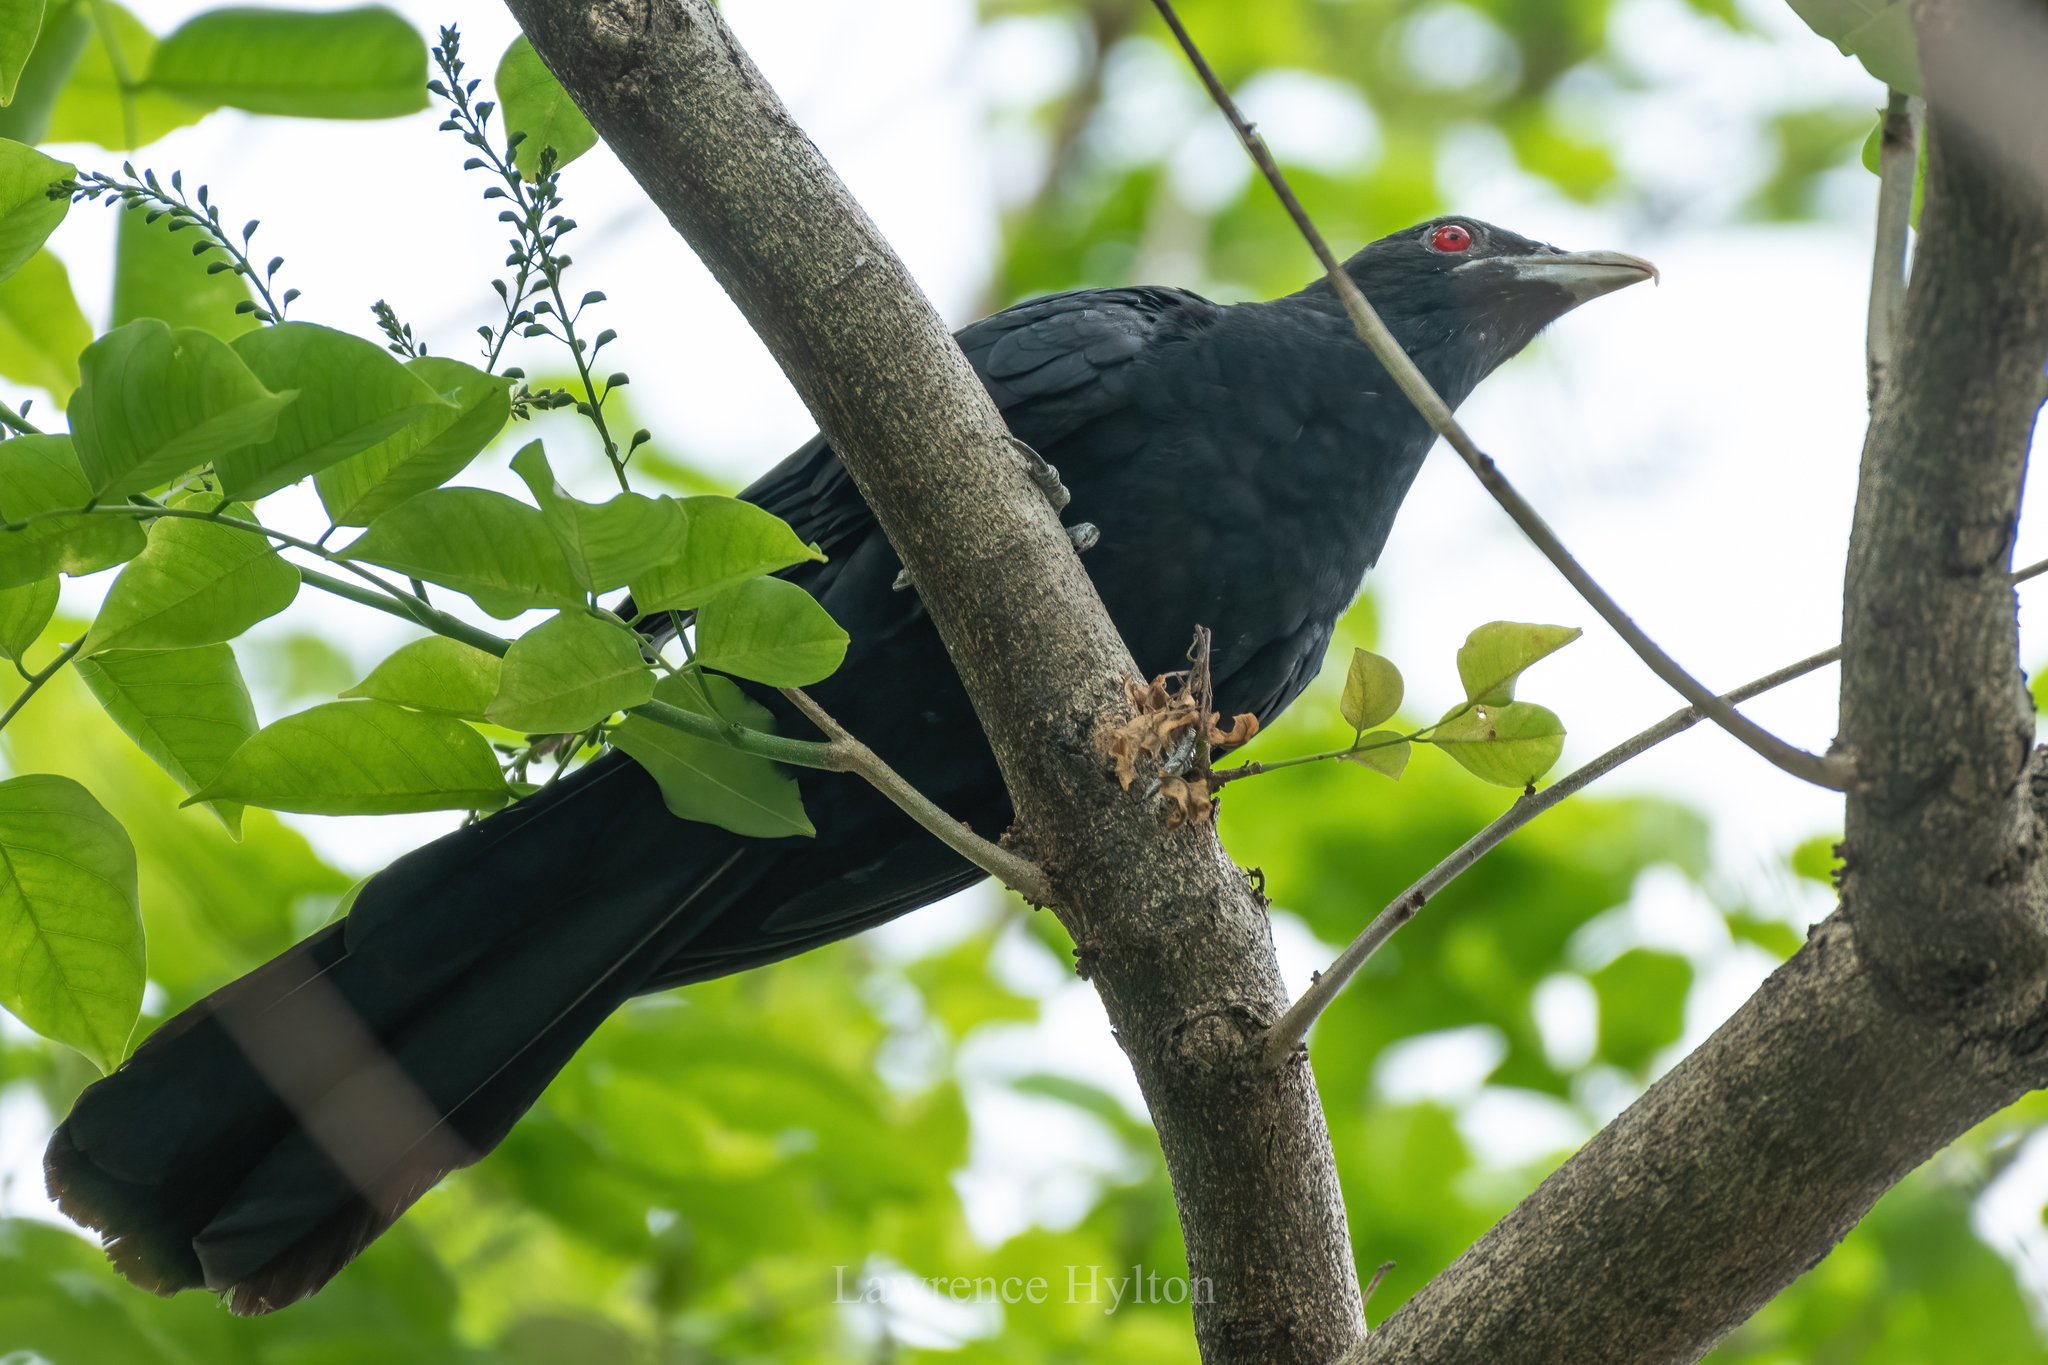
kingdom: Animalia
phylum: Chordata
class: Aves
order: Cuculiformes
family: Cuculidae
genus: Eudynamys
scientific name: Eudynamys scolopaceus
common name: Asian koel
